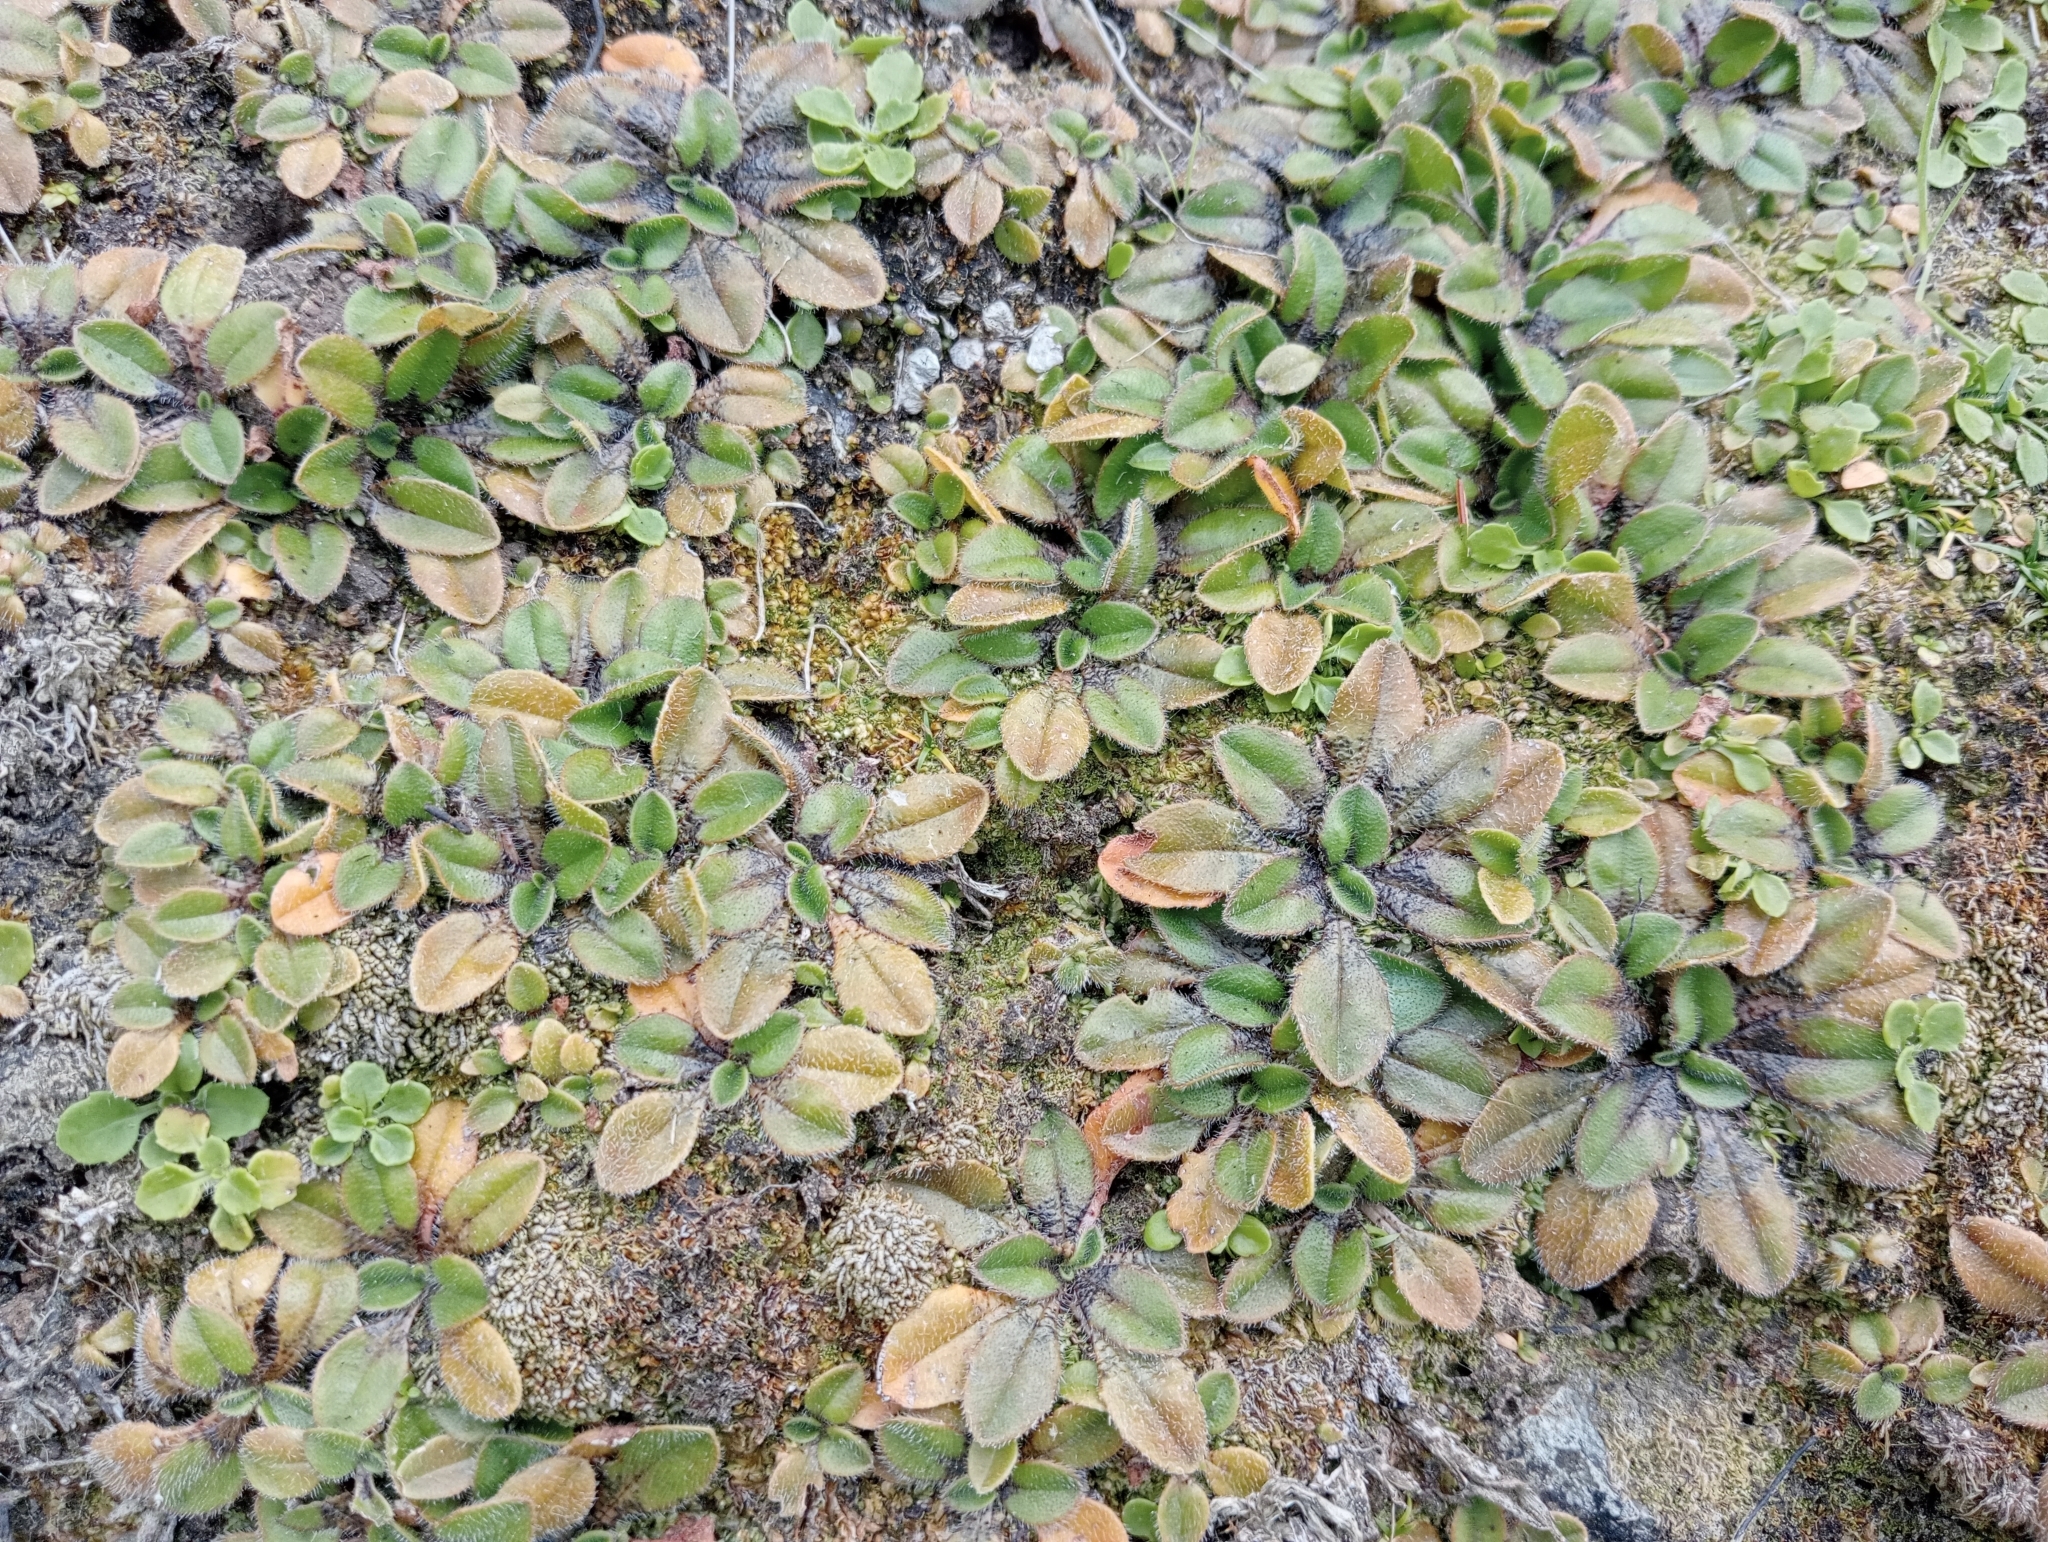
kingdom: Plantae
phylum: Tracheophyta
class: Magnoliopsida
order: Lamiales
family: Plantaginaceae
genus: Plantago
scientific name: Plantago raoulii
